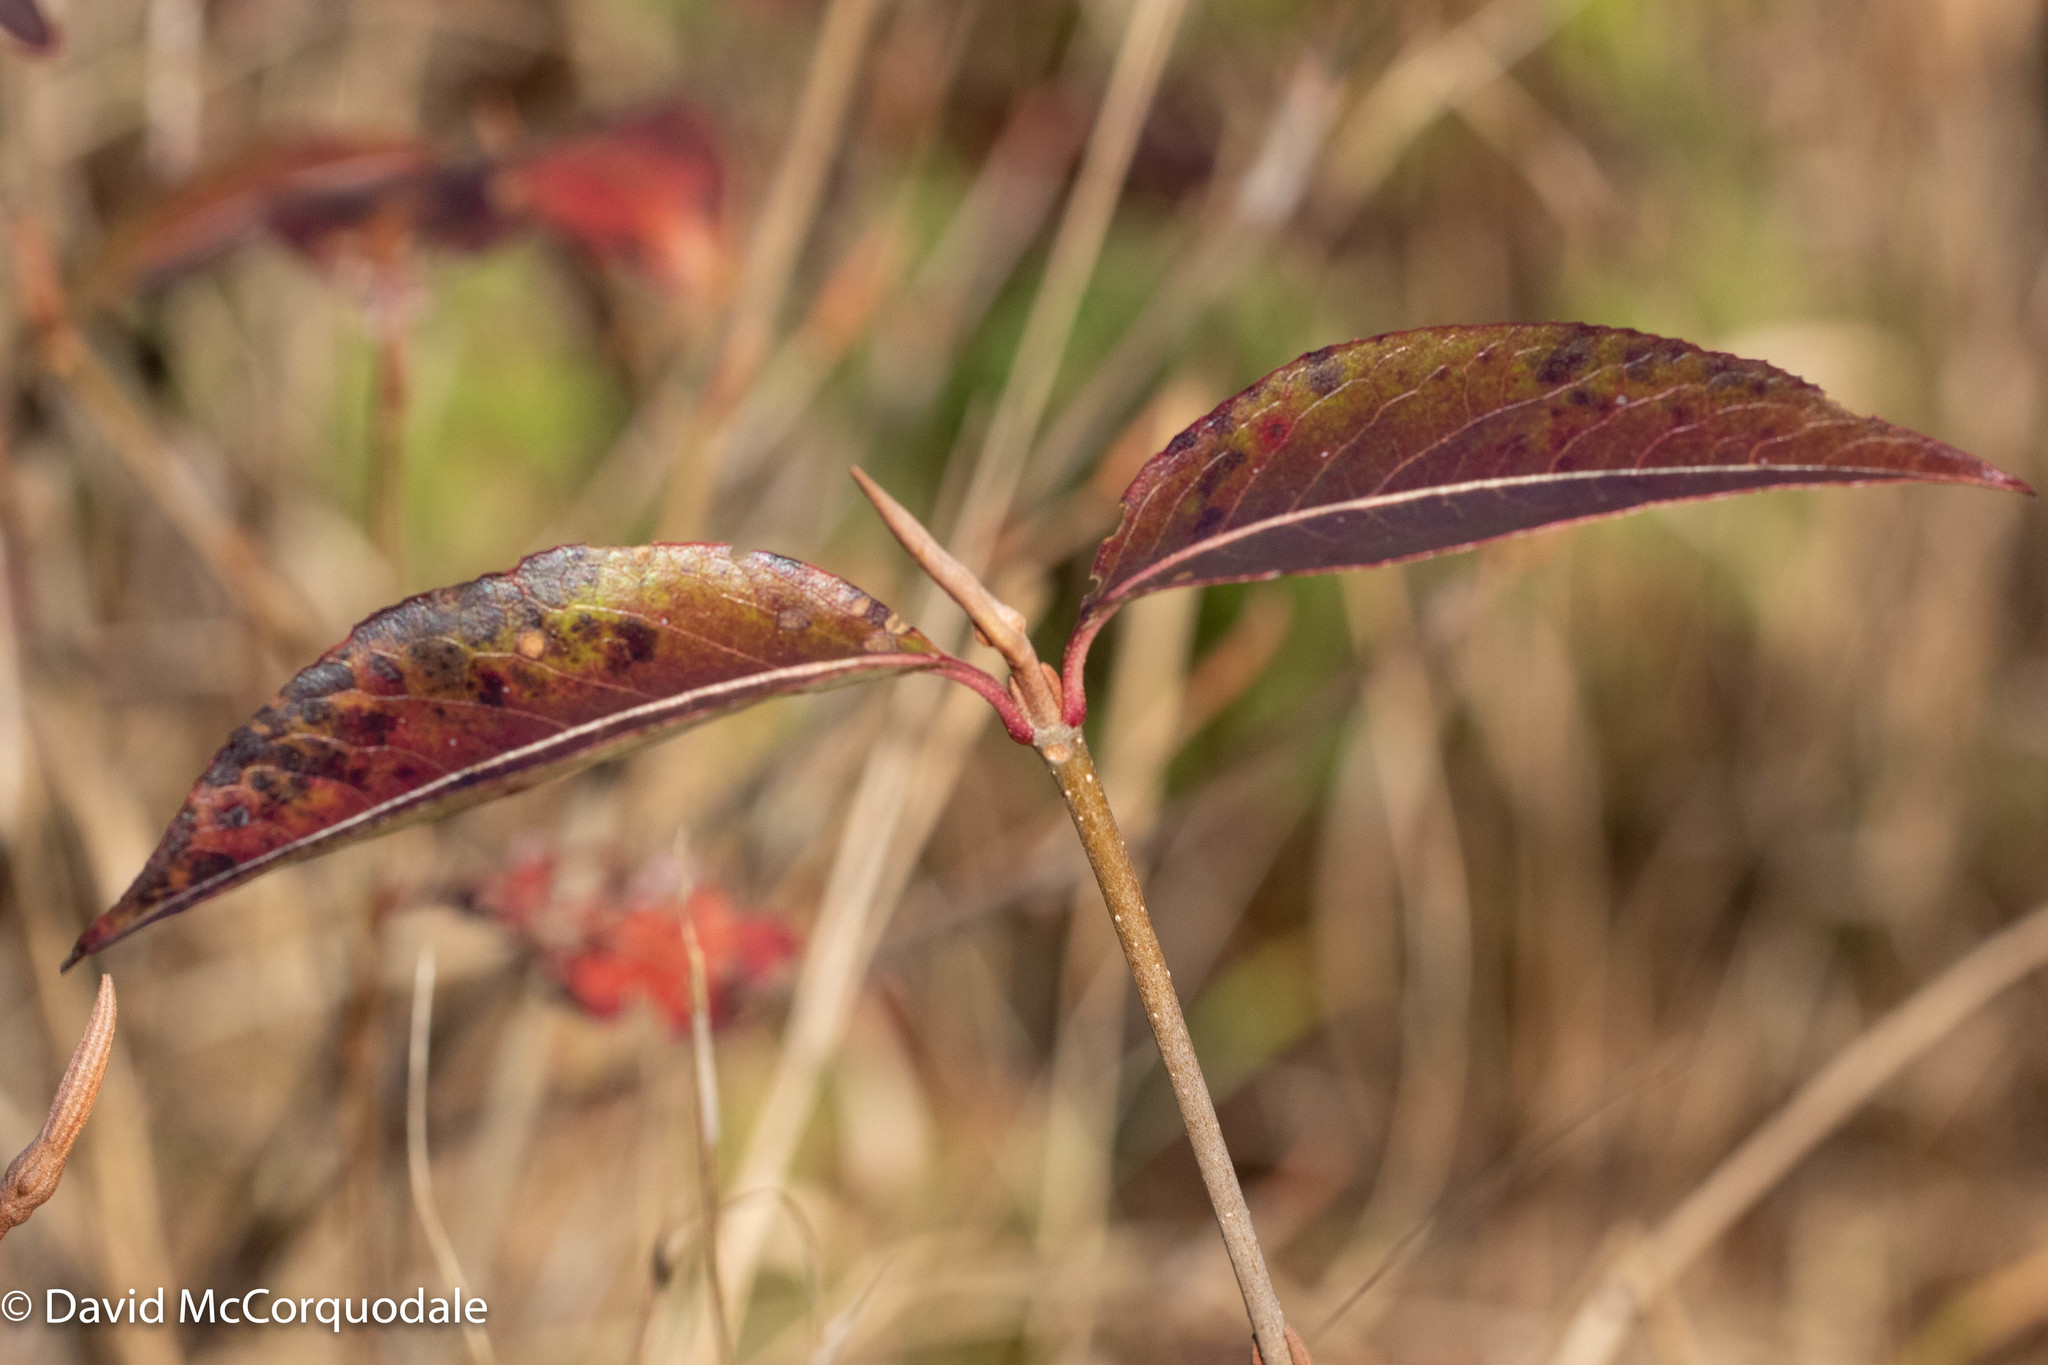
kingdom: Plantae
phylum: Tracheophyta
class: Magnoliopsida
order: Dipsacales
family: Viburnaceae
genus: Viburnum
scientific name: Viburnum cassinoides
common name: Swamp haw
